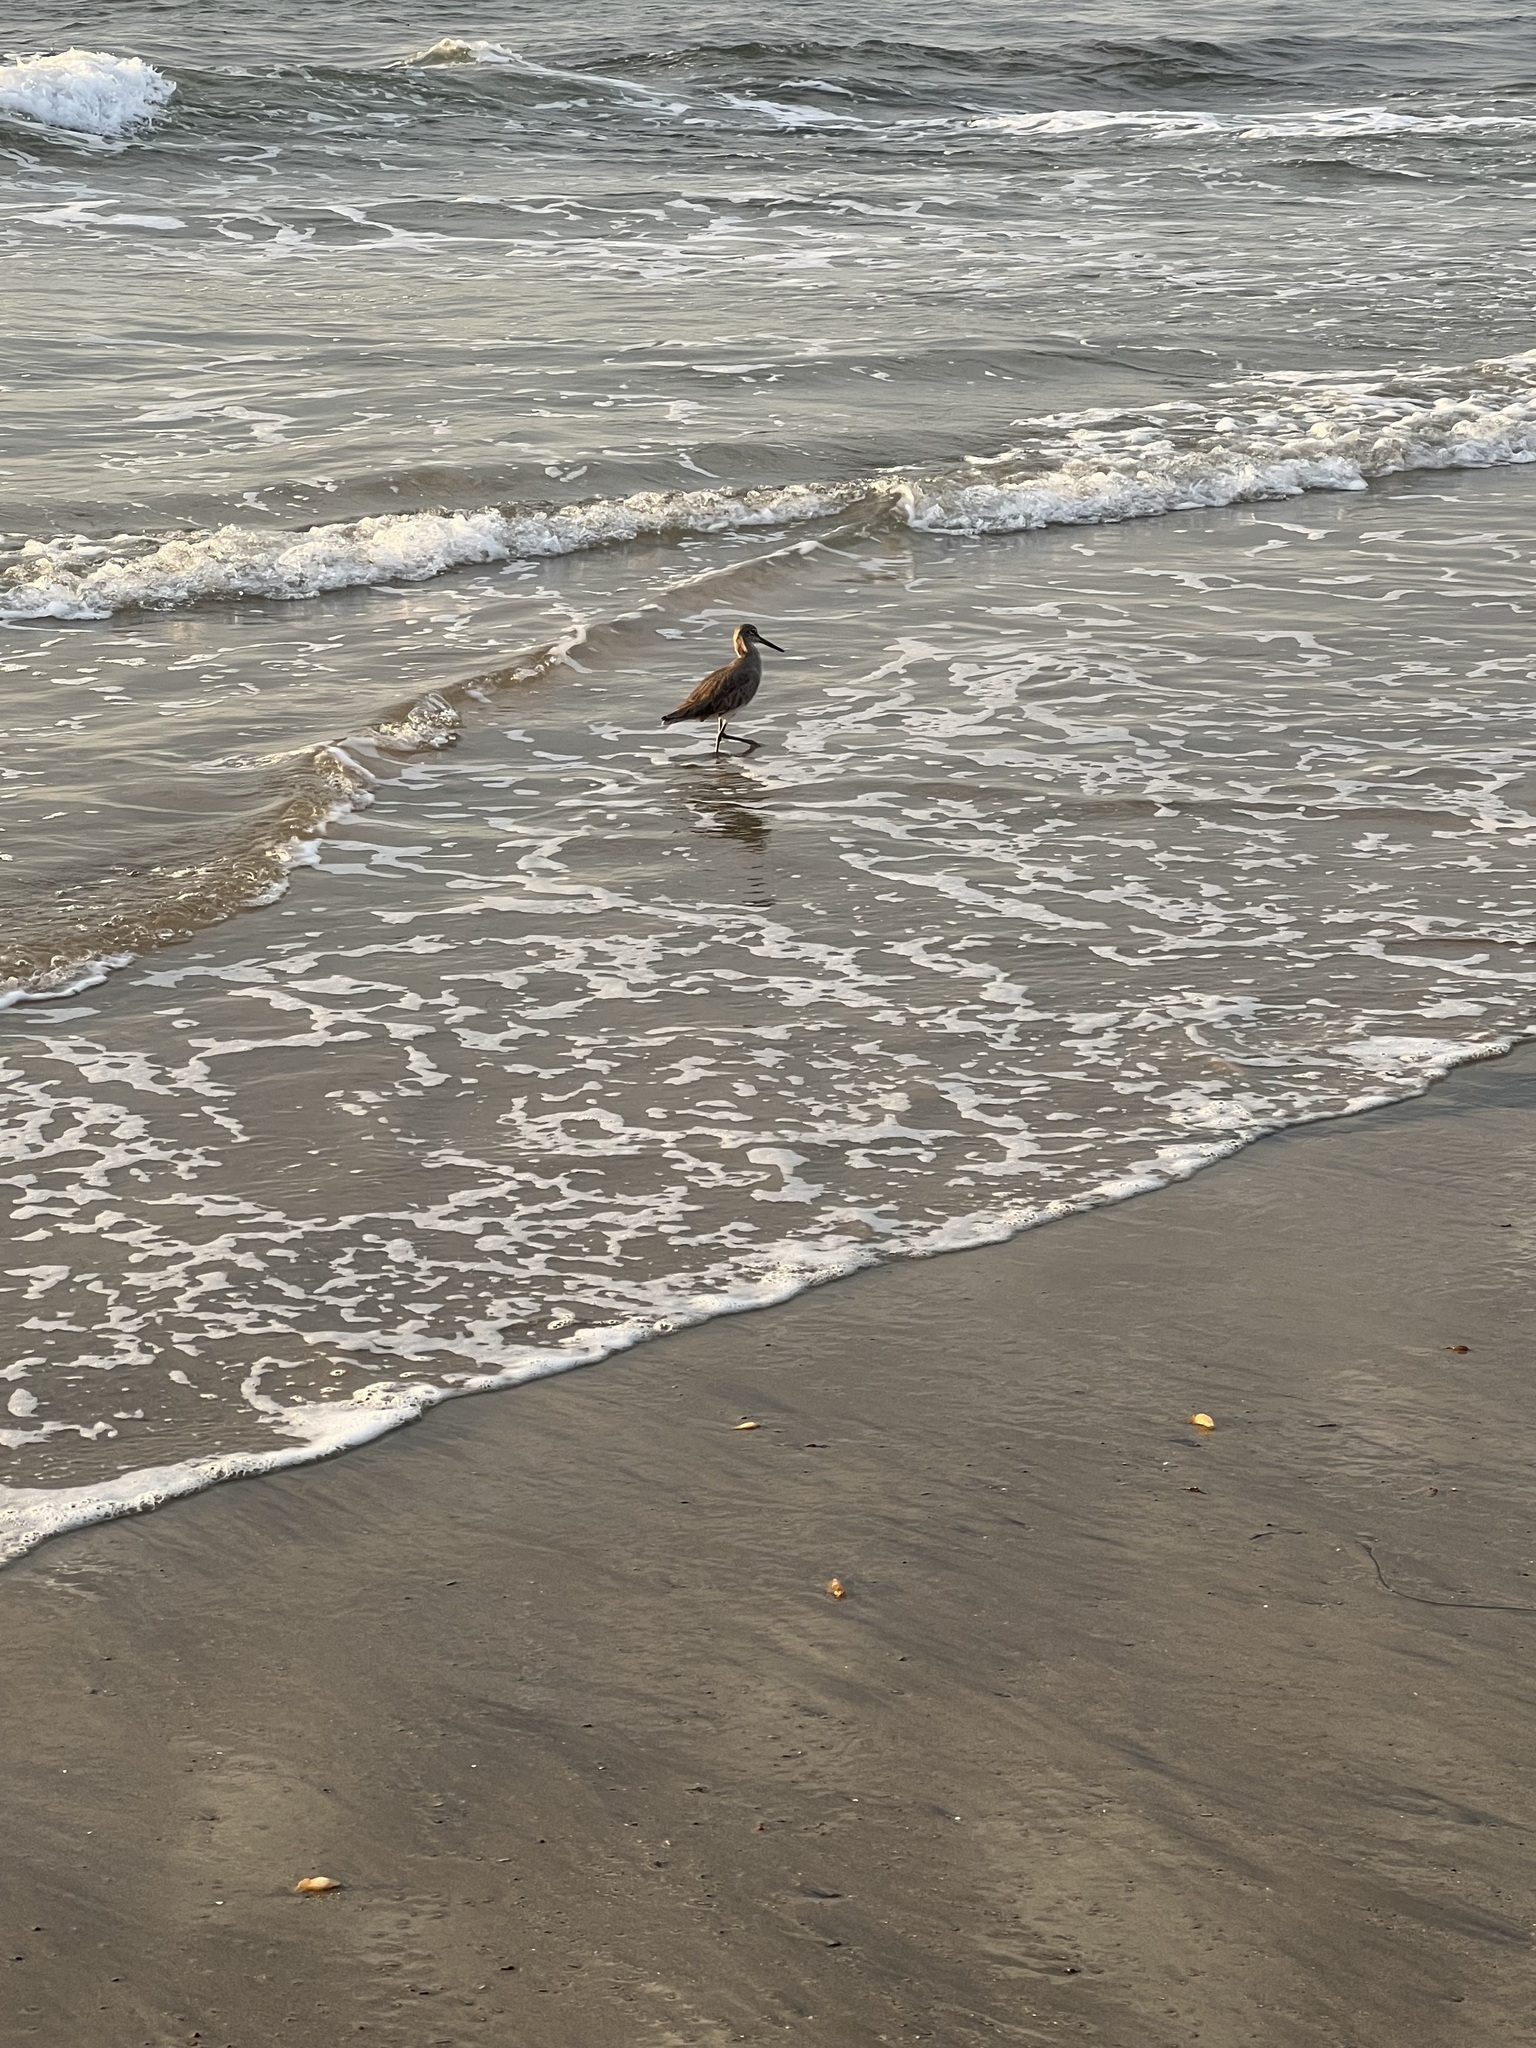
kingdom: Animalia
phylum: Chordata
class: Aves
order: Charadriiformes
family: Scolopacidae
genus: Tringa
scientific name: Tringa semipalmata
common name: Willet
